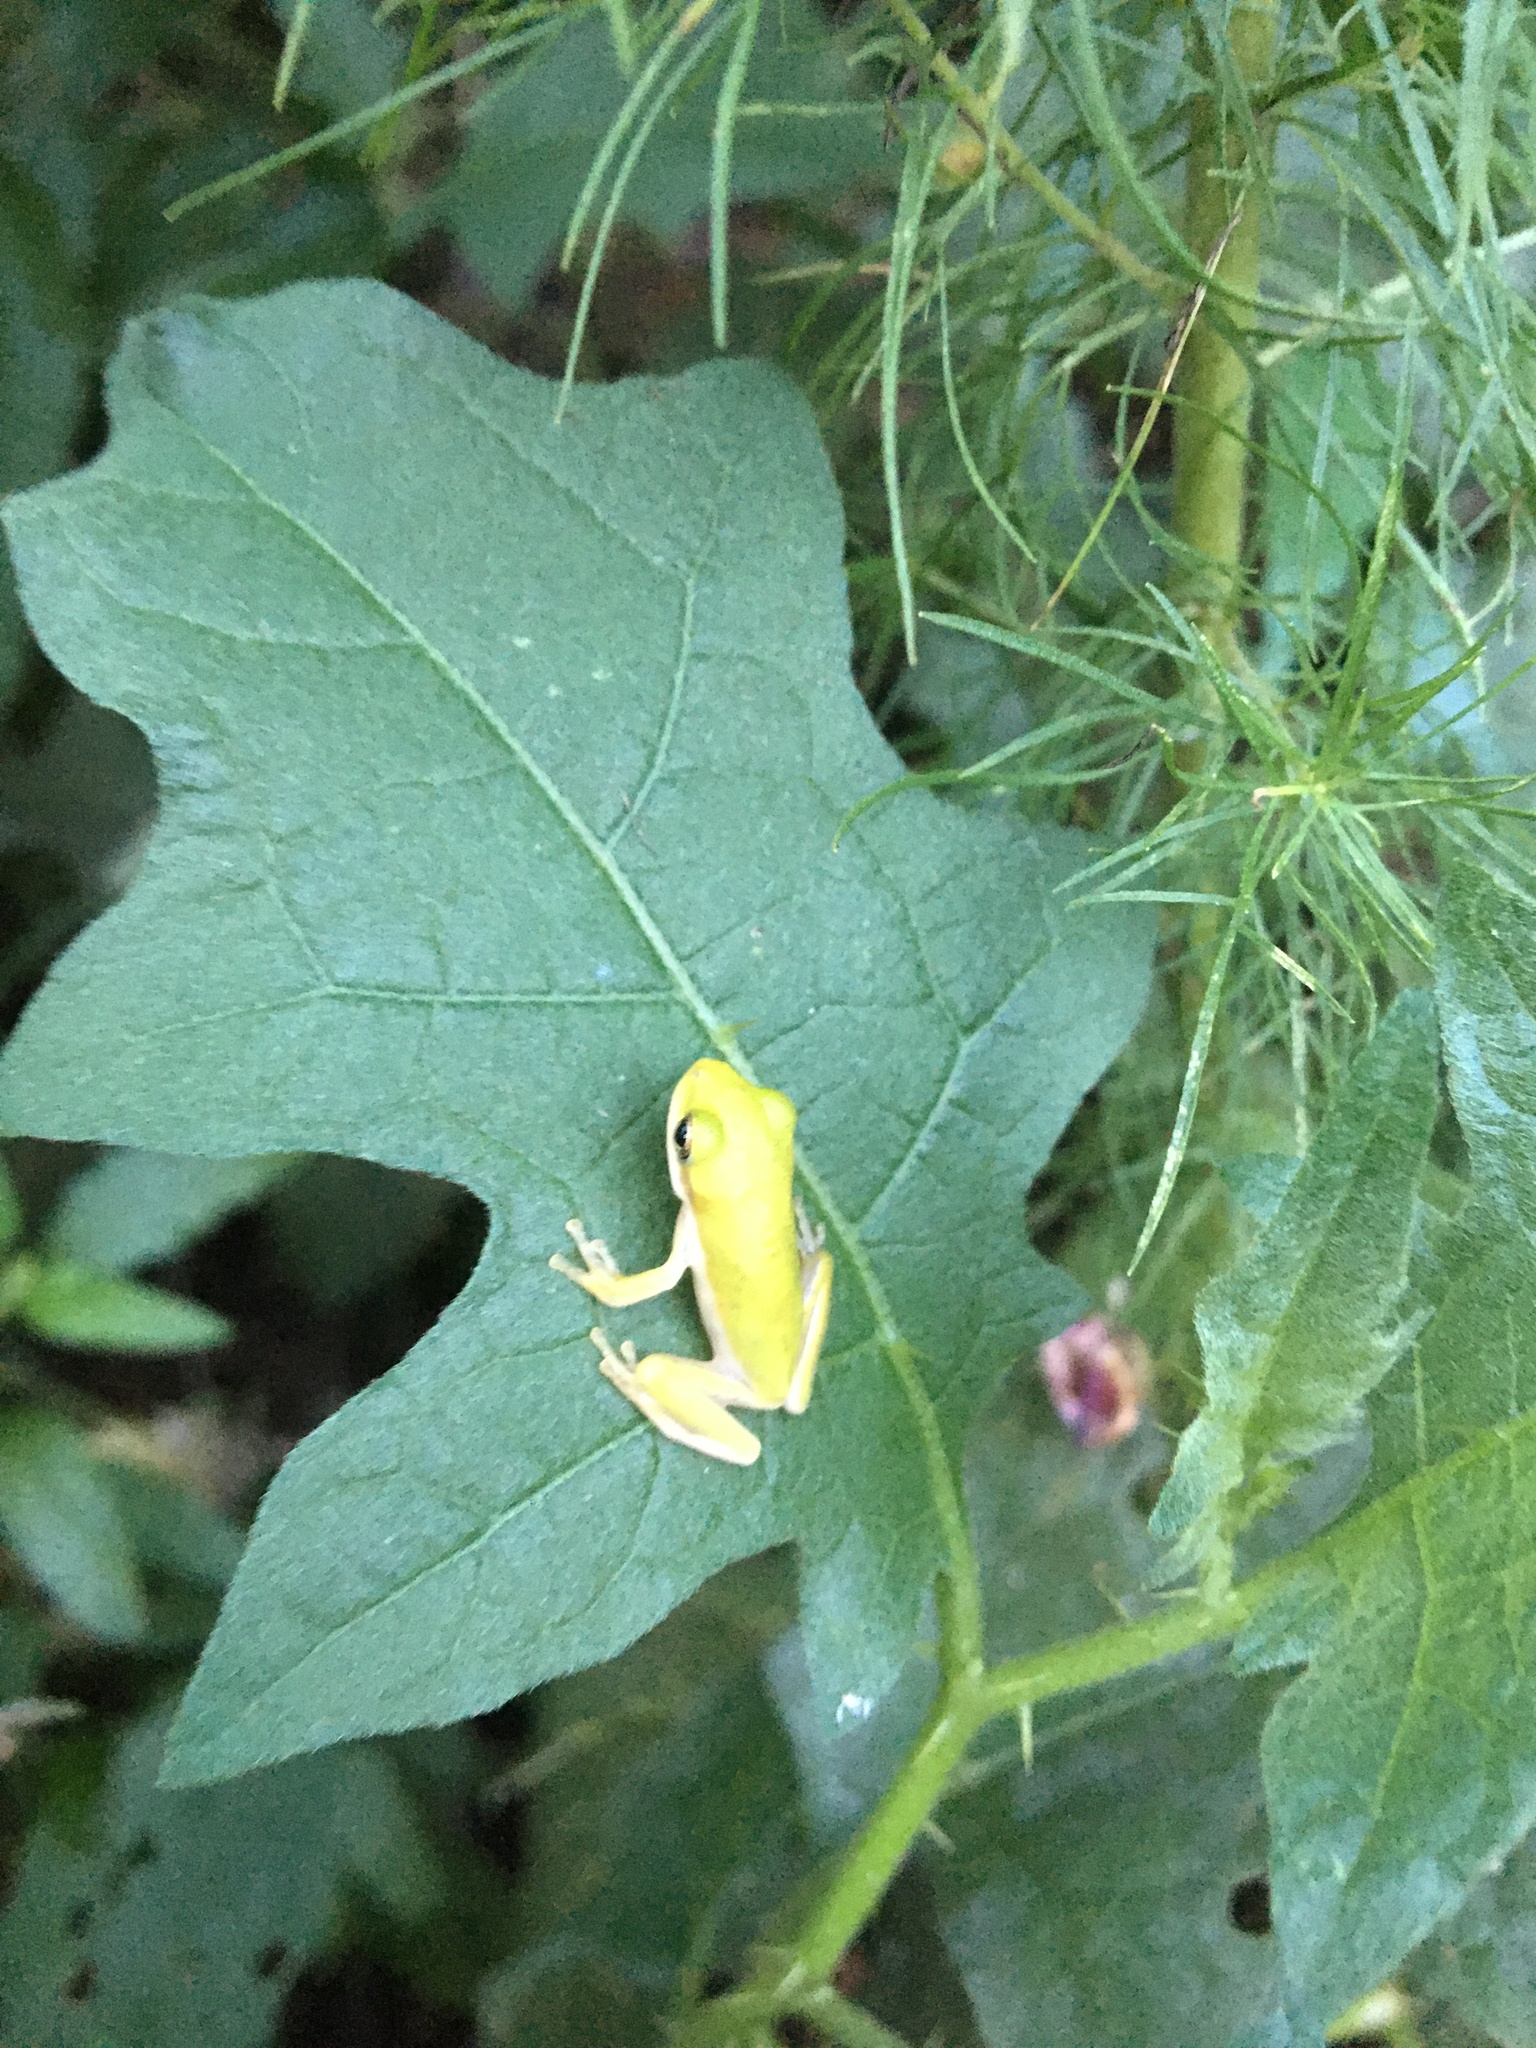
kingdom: Animalia
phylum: Chordata
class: Amphibia
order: Anura
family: Hylidae
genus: Dryophytes
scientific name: Dryophytes cinereus
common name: Green treefrog
